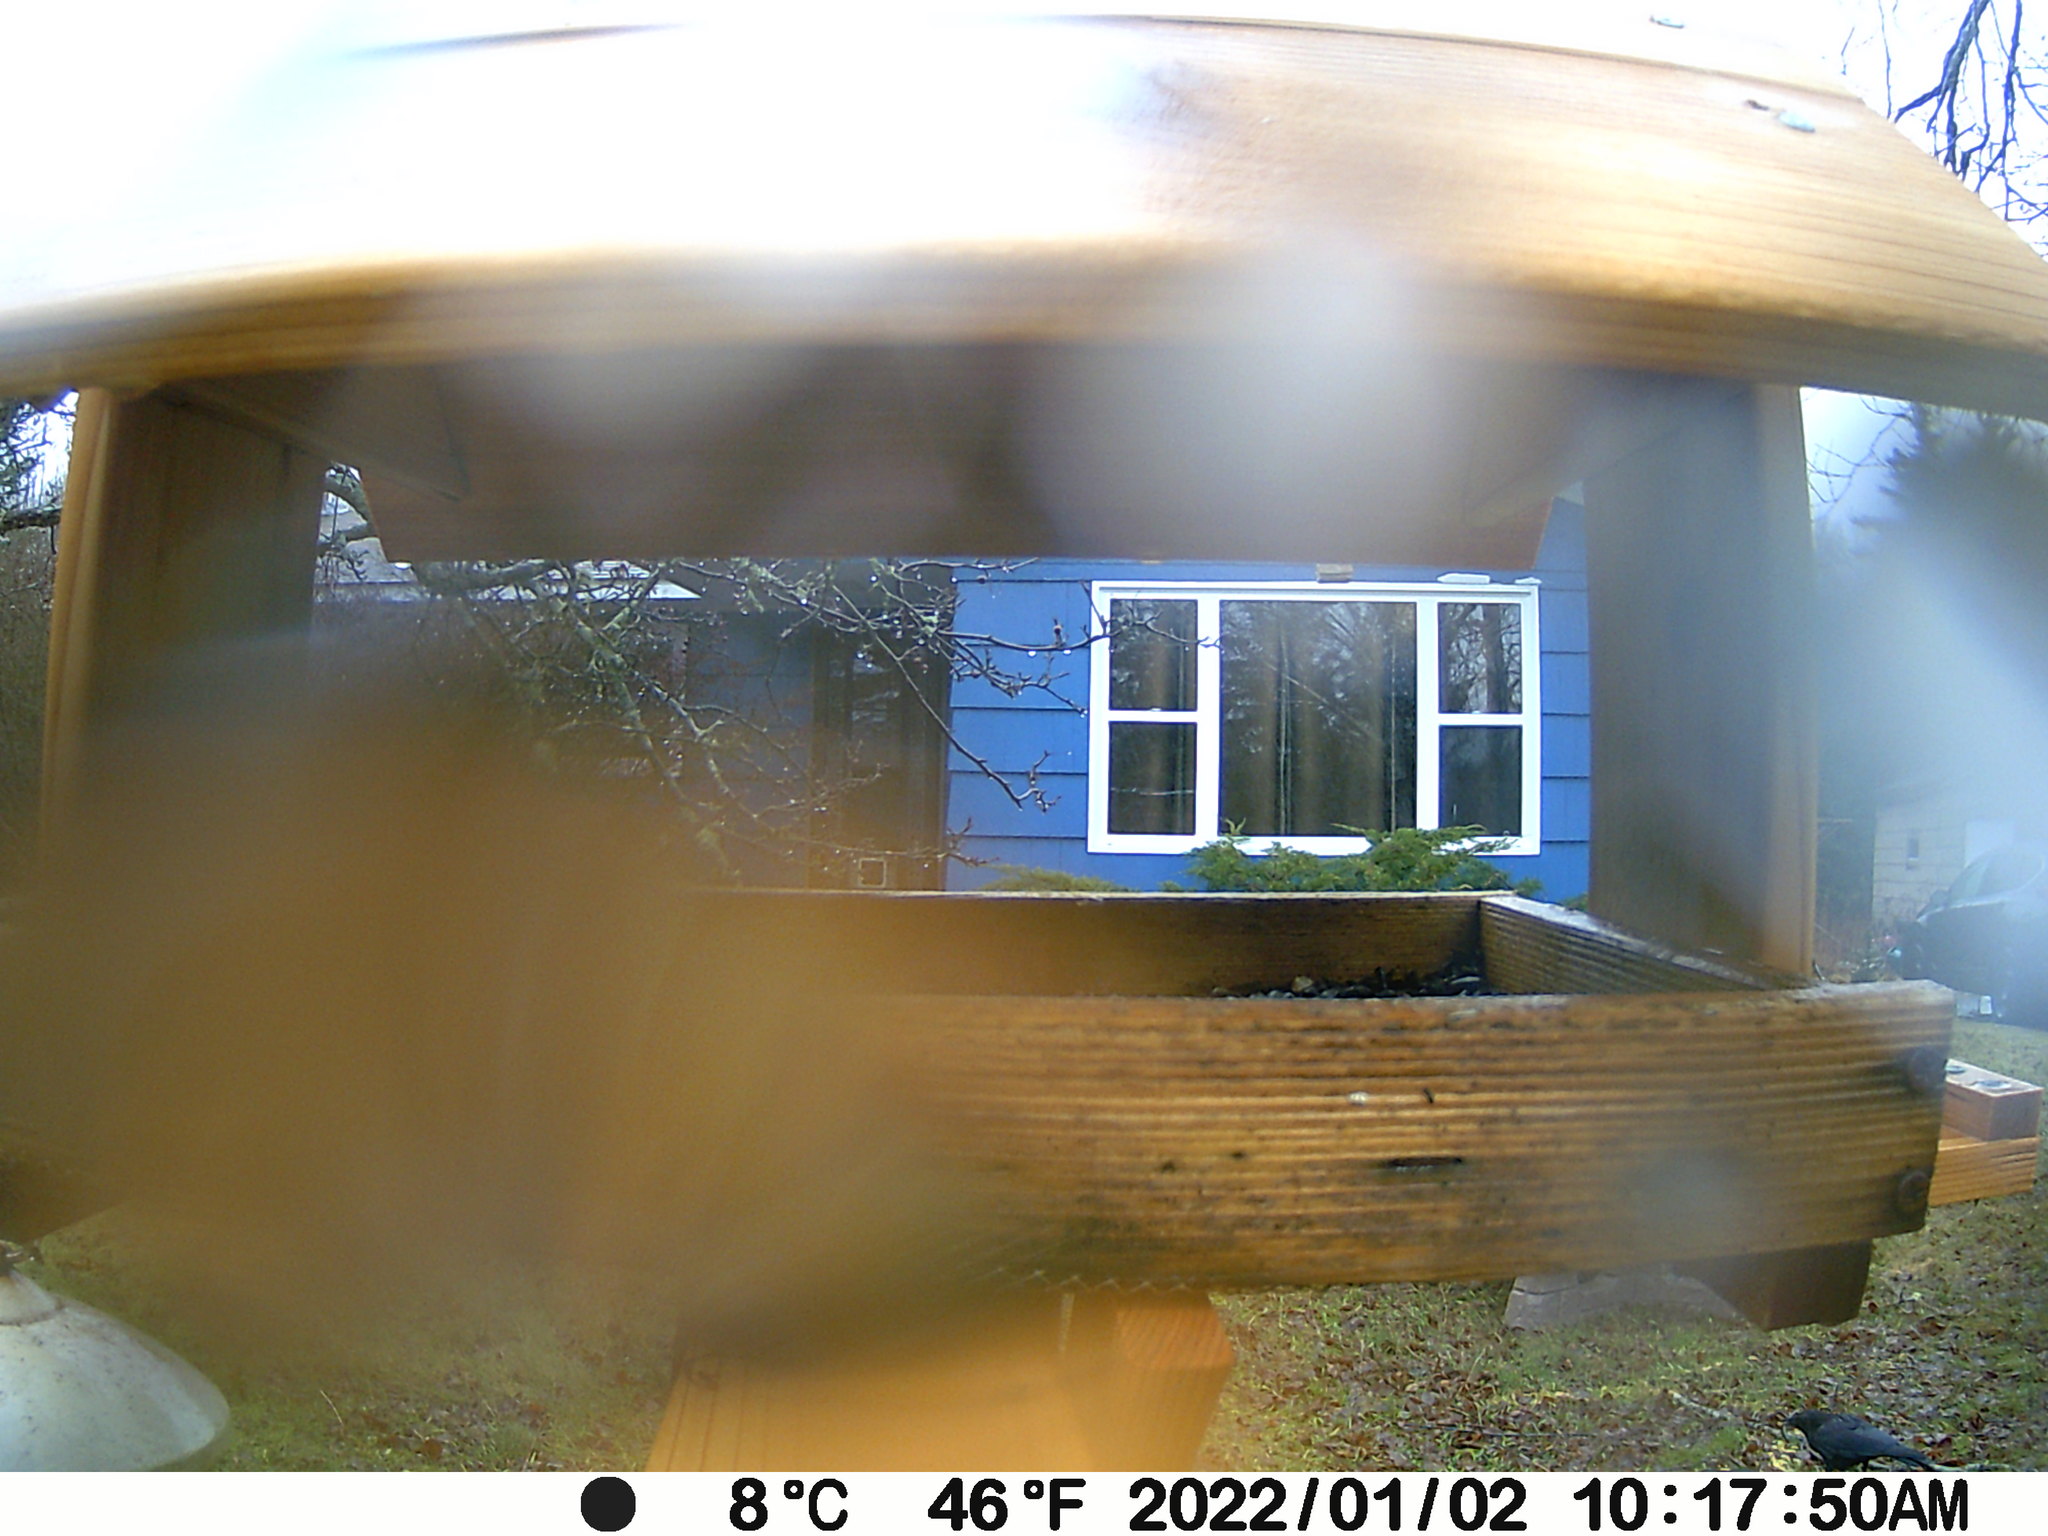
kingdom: Animalia
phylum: Chordata
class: Aves
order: Passeriformes
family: Corvidae
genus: Corvus
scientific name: Corvus brachyrhynchos
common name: American crow
